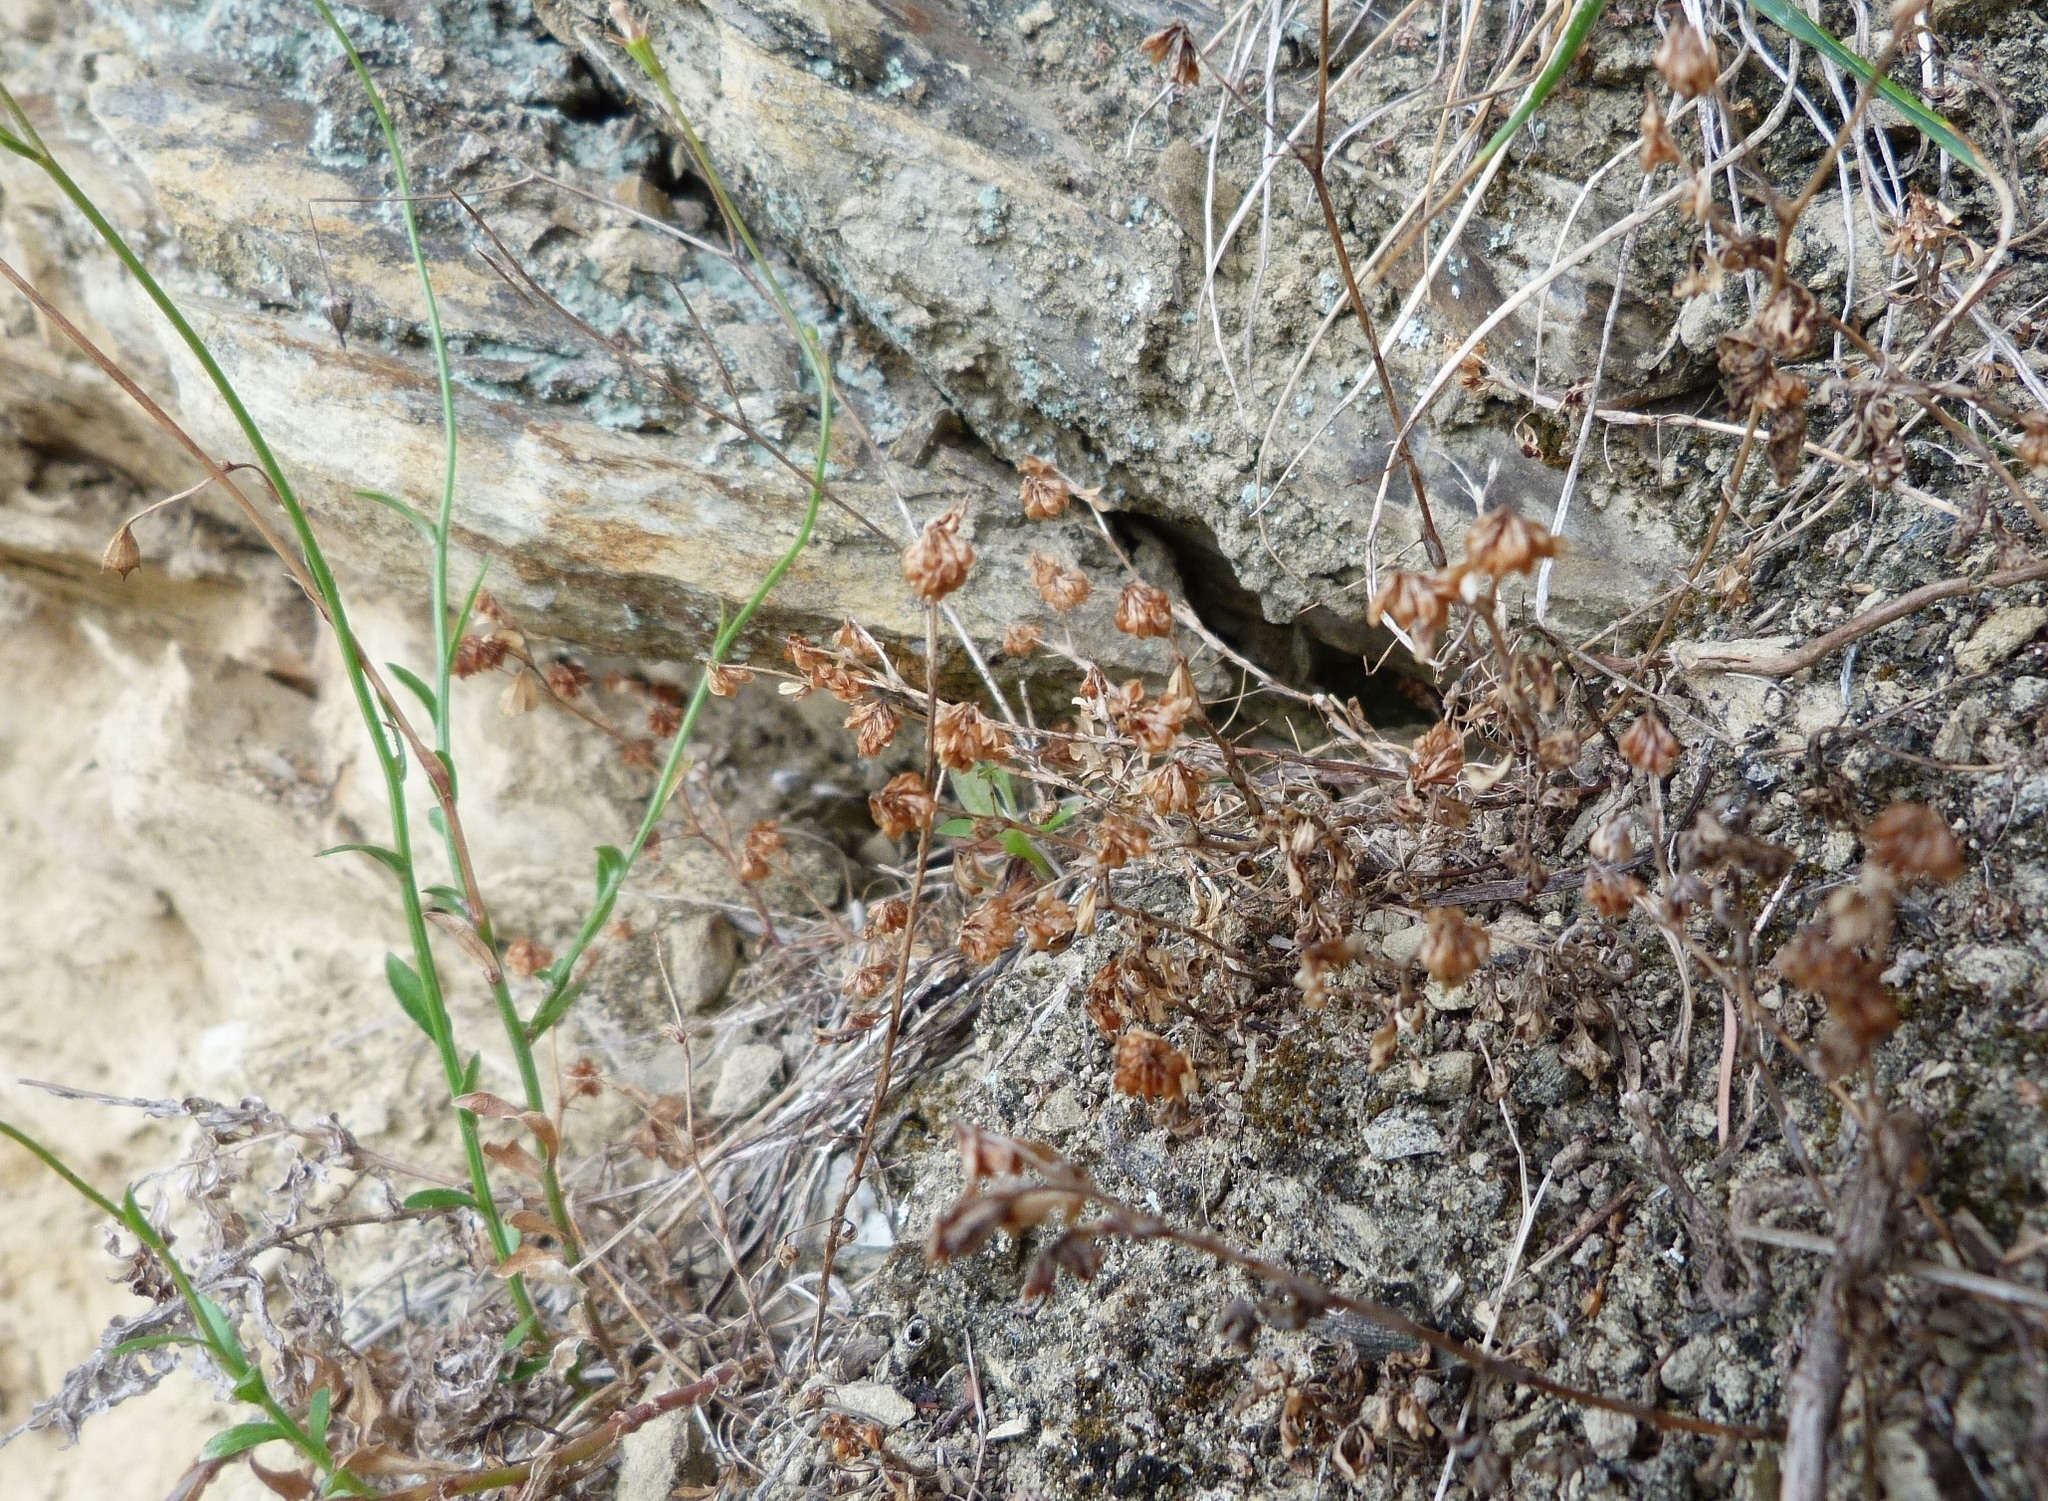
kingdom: Plantae
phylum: Tracheophyta
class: Magnoliopsida
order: Fabales
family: Fabaceae
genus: Trifolium
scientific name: Trifolium dubium
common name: Suckling clover
